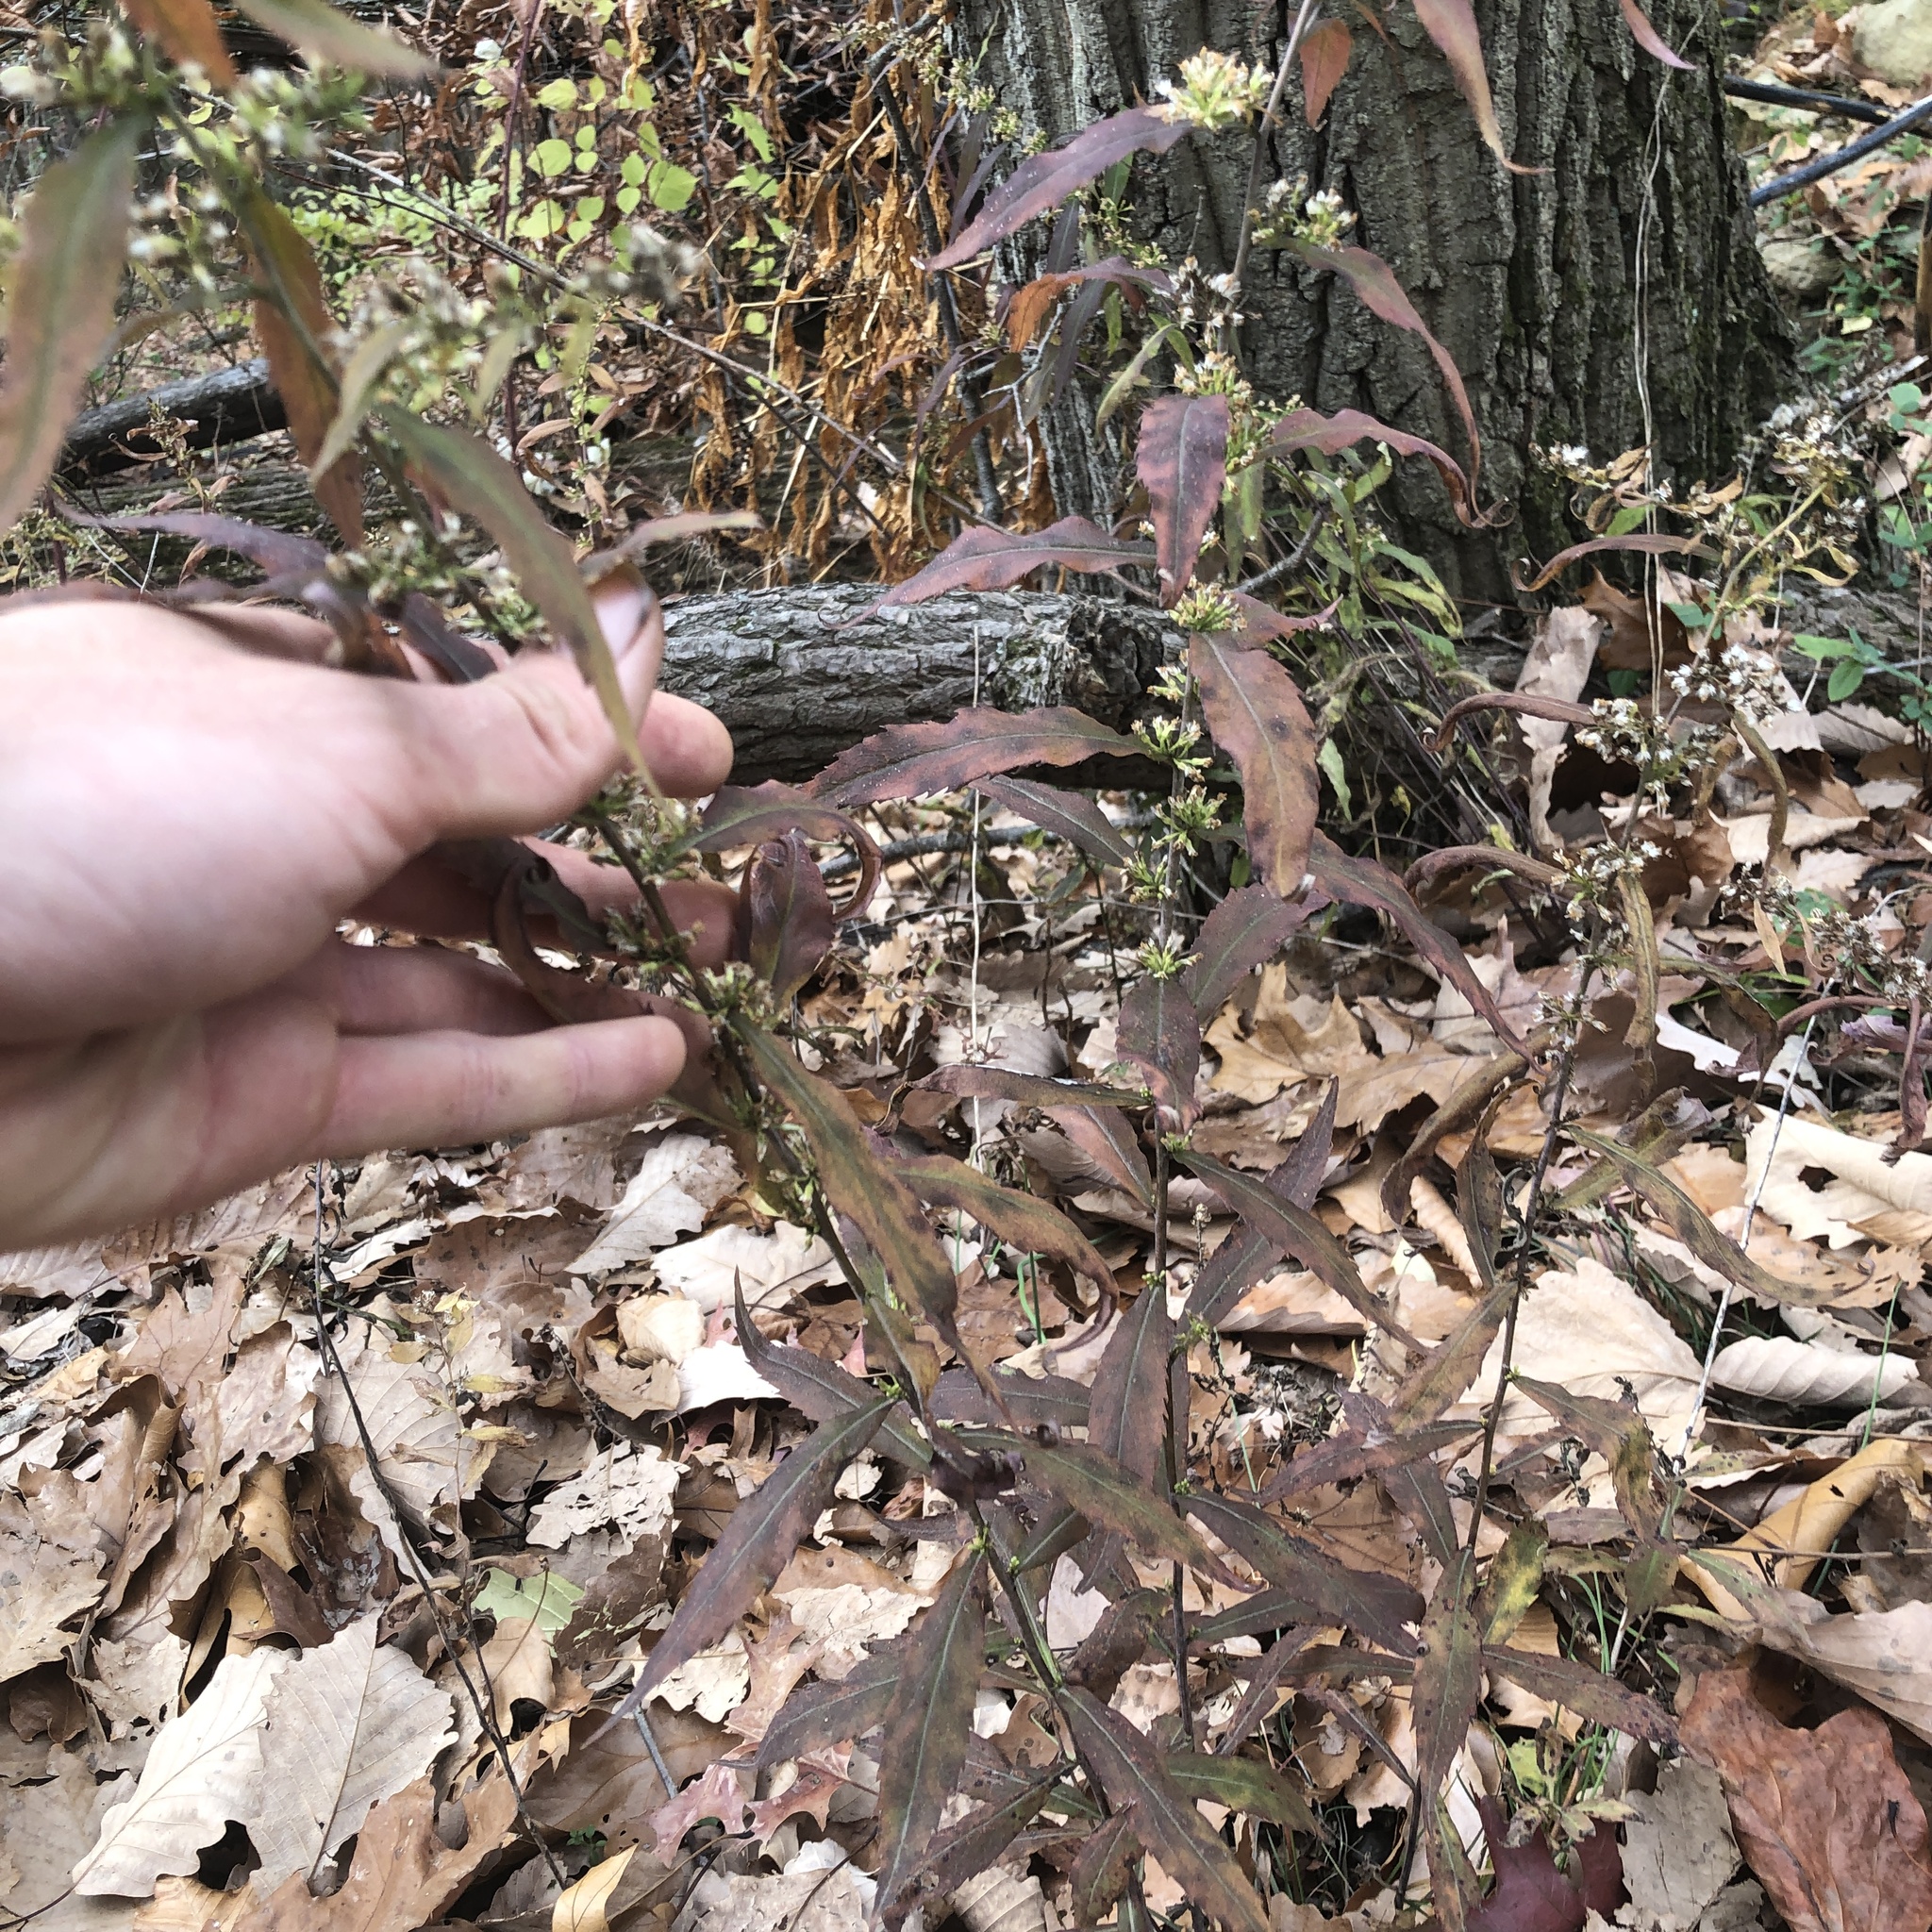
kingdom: Plantae
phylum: Tracheophyta
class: Magnoliopsida
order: Asterales
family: Asteraceae
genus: Solidago
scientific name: Solidago caesia
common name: Woodland goldenrod
